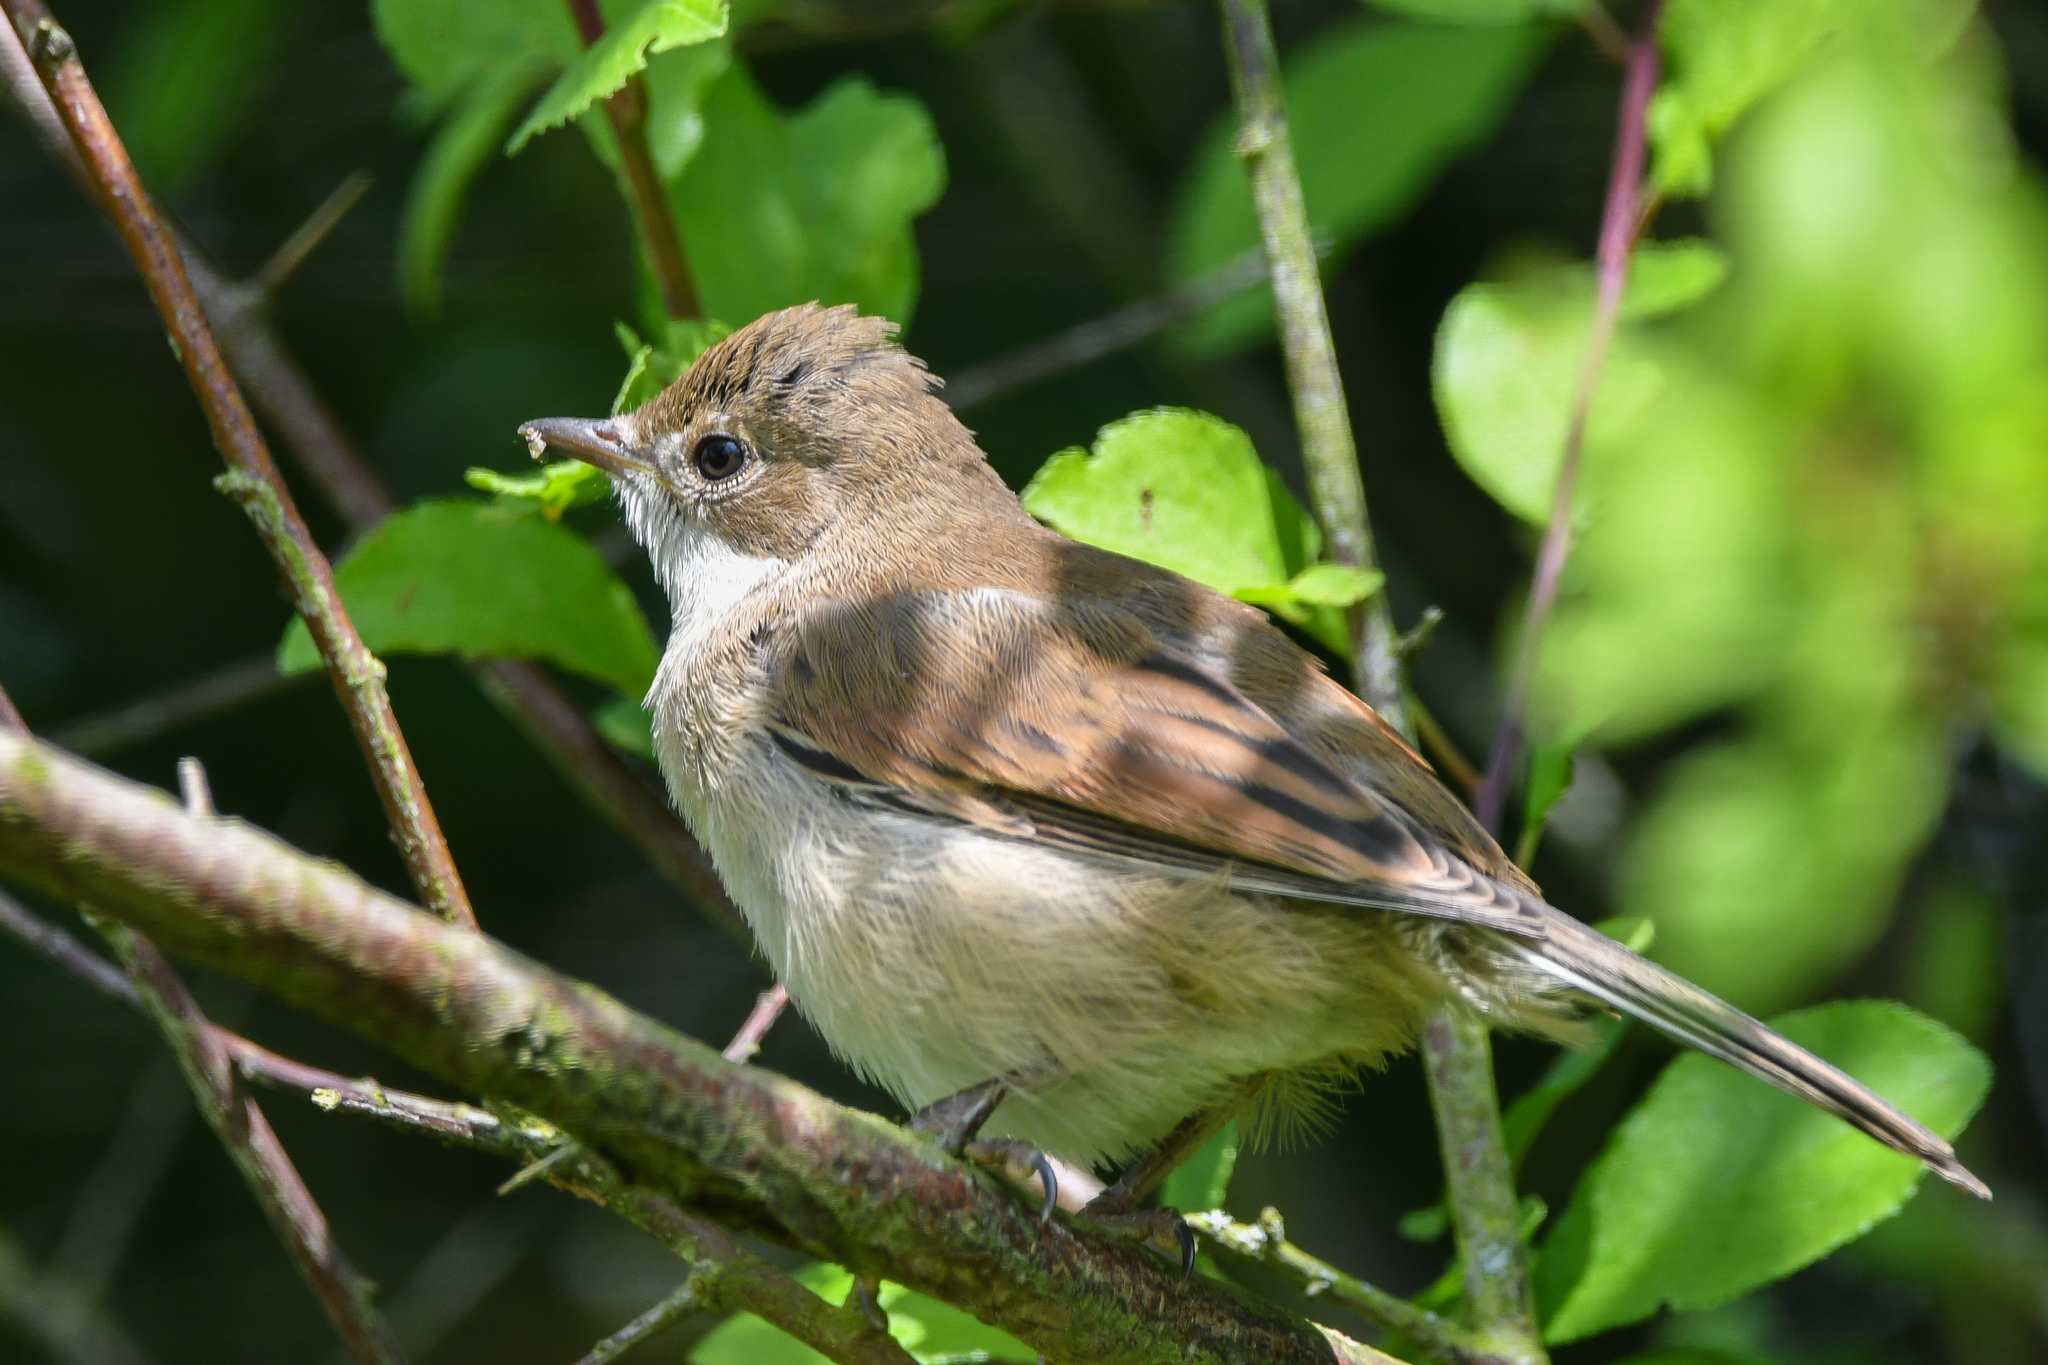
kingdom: Animalia
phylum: Chordata
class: Aves
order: Passeriformes
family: Sylviidae
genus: Sylvia
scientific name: Sylvia communis
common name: Common whitethroat
